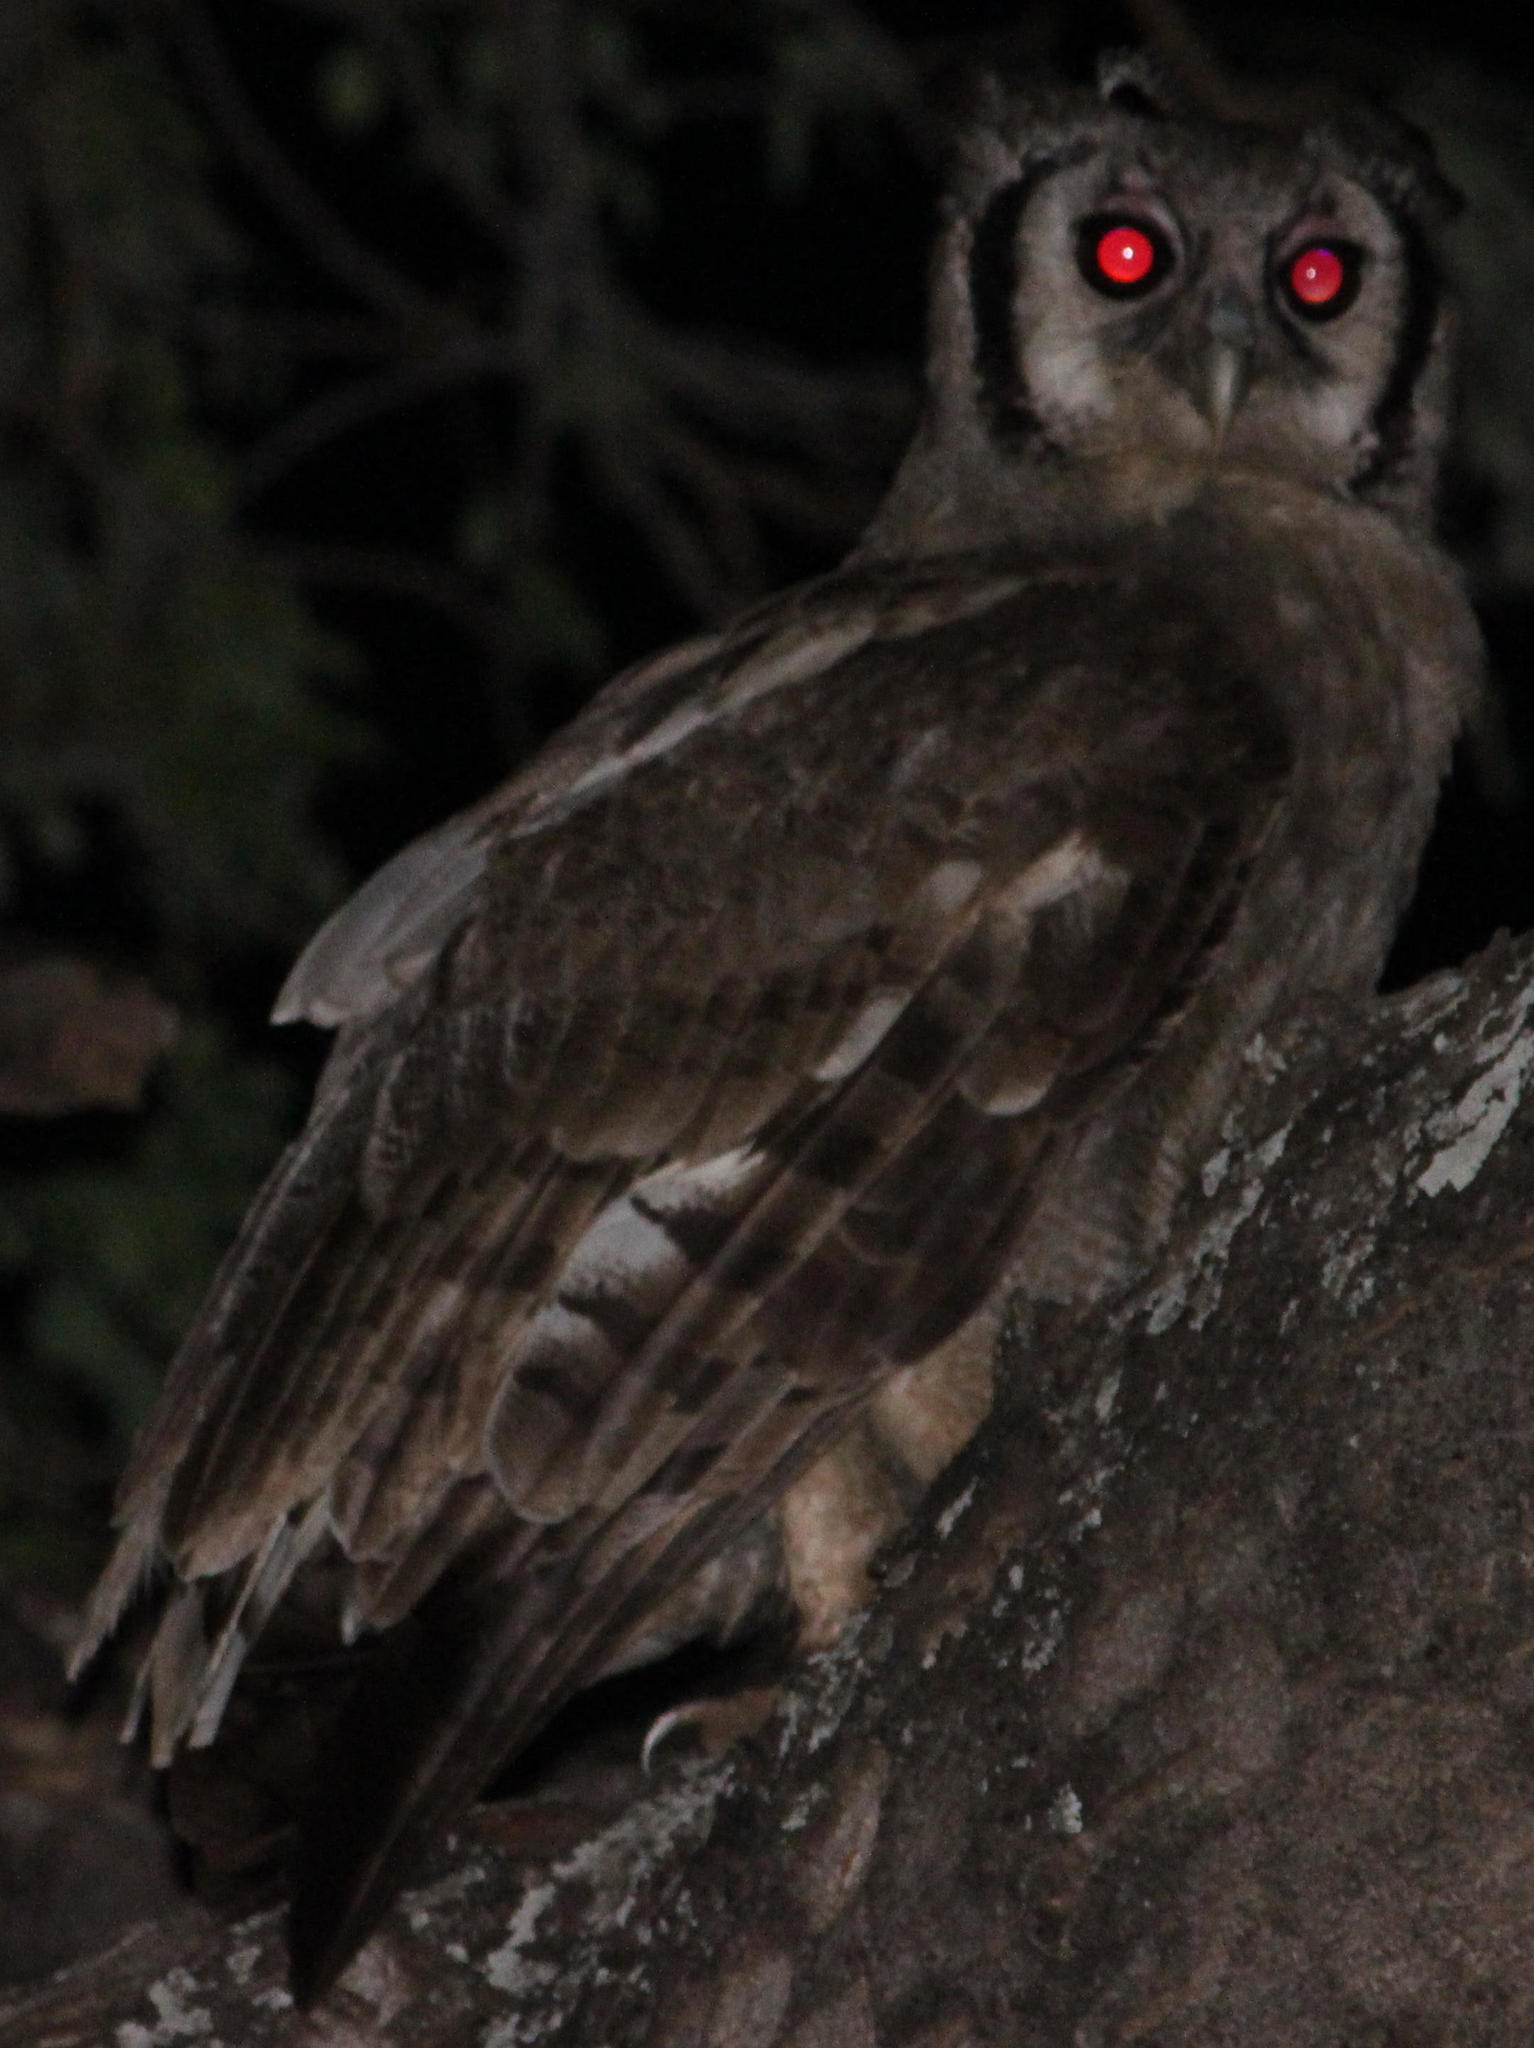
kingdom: Animalia
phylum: Chordata
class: Aves
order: Strigiformes
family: Strigidae
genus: Bubo
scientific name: Bubo lacteus
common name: Verreaux's eagle-owl
